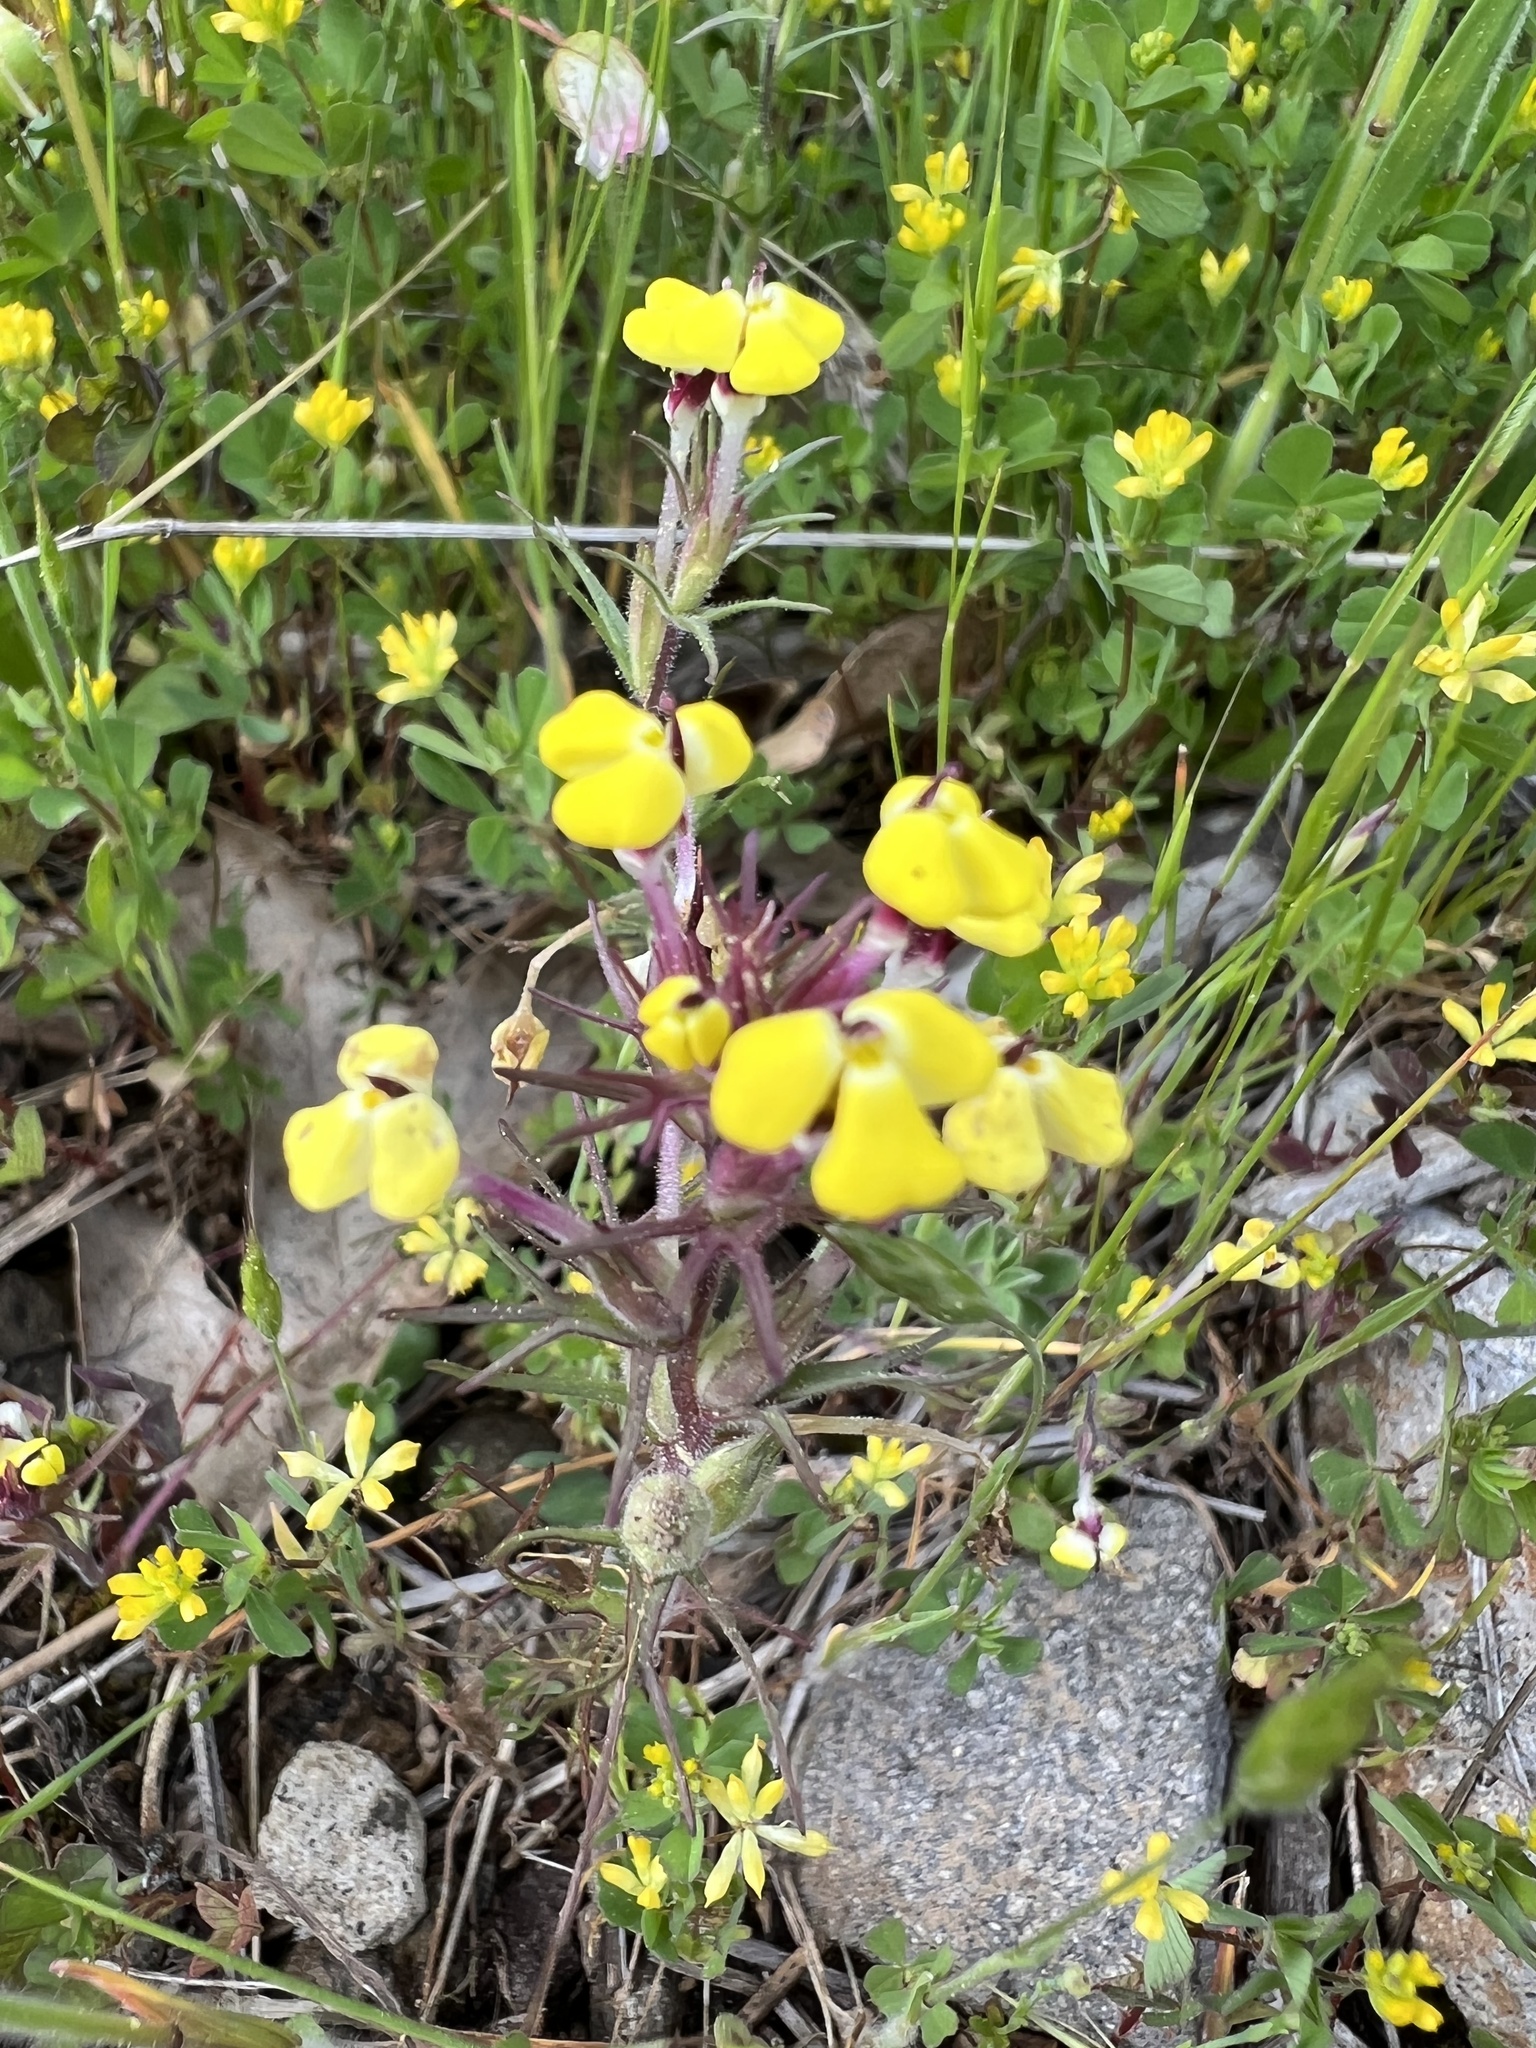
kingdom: Plantae
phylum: Tracheophyta
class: Magnoliopsida
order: Lamiales
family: Orobanchaceae
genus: Triphysaria
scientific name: Triphysaria eriantha
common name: Johnny-tuck
